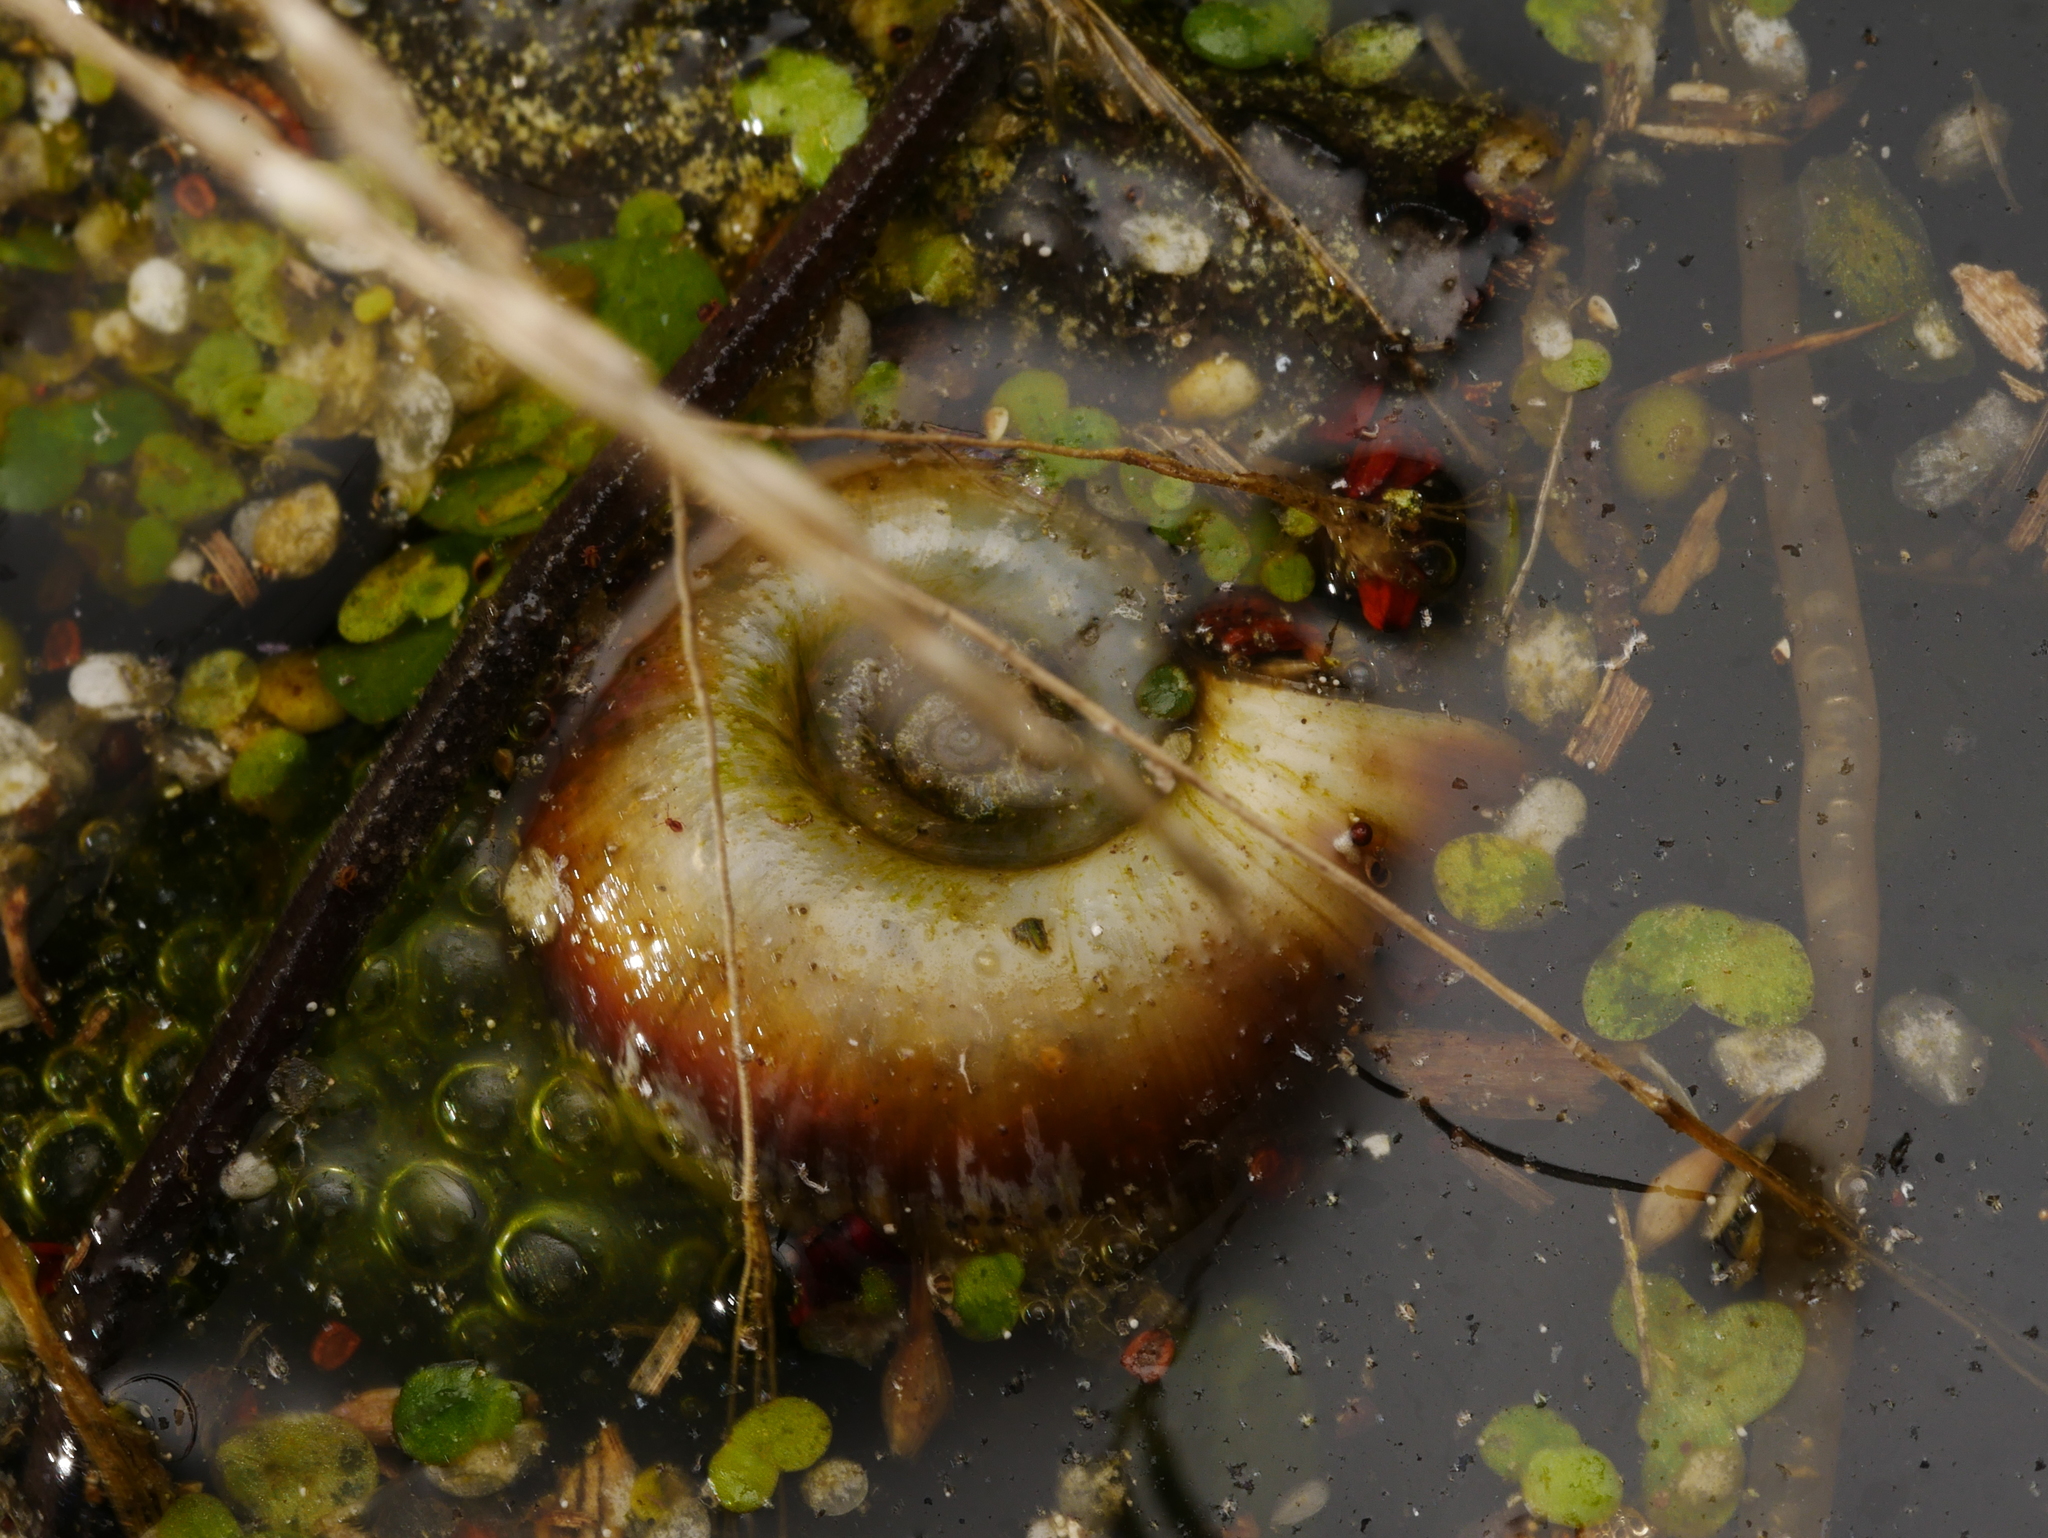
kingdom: Animalia
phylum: Mollusca
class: Gastropoda
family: Planorbidae
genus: Planorbarius
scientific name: Planorbarius corneus
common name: Great ramshorn
